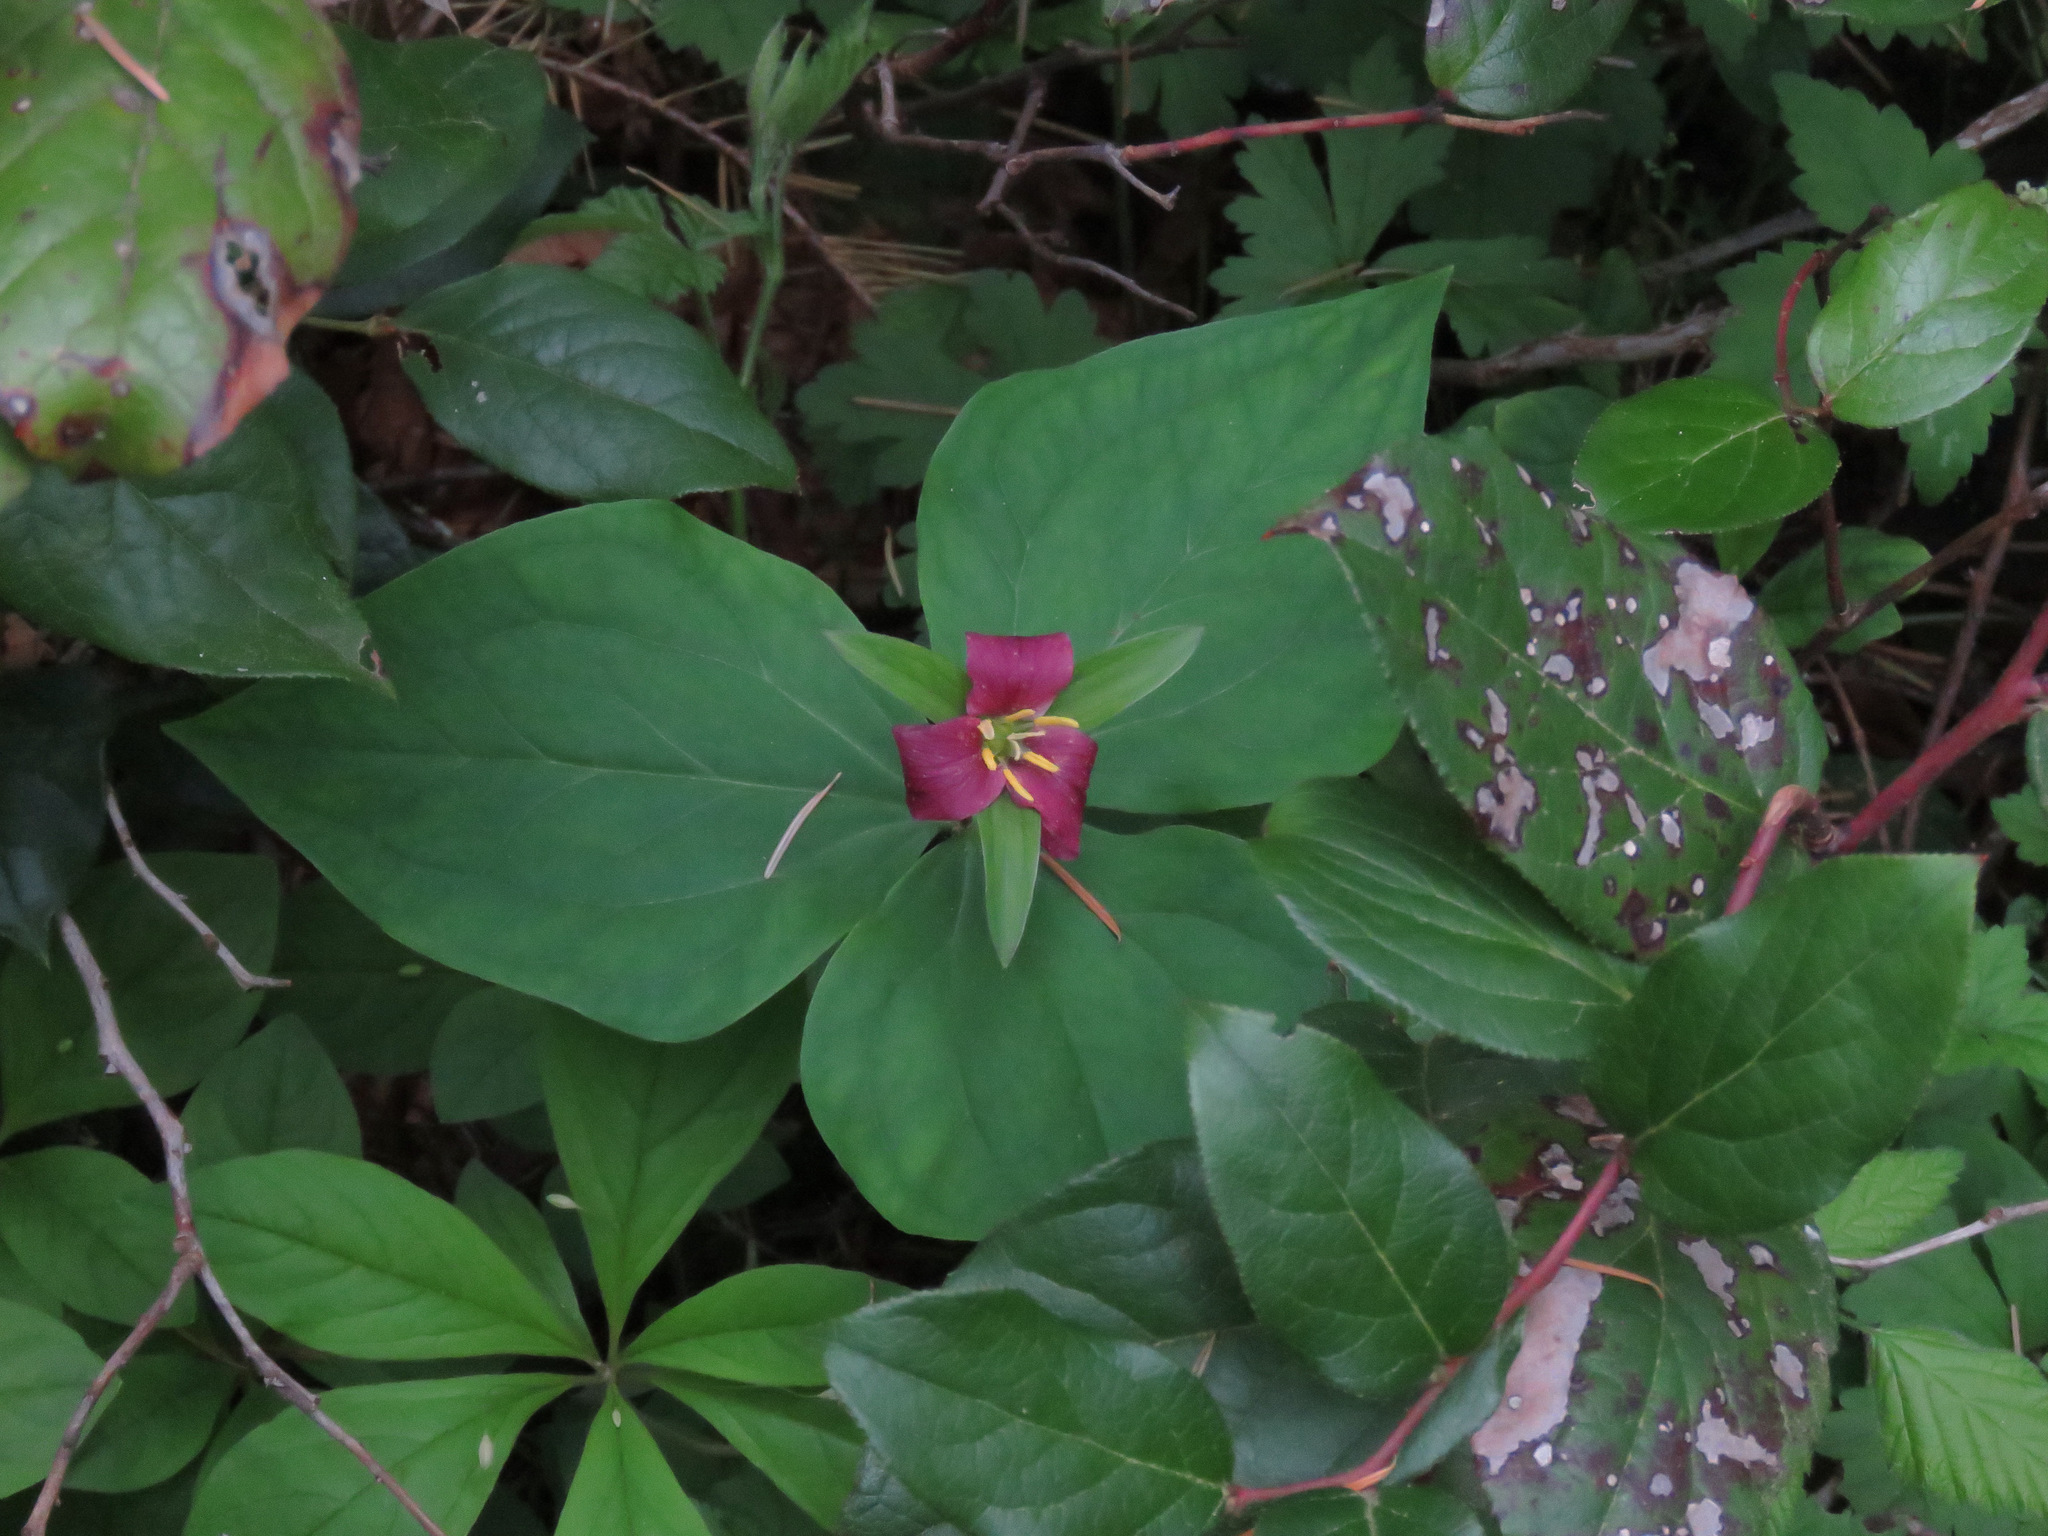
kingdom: Plantae
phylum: Tracheophyta
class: Liliopsida
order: Liliales
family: Melanthiaceae
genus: Trillium
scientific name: Trillium ovatum
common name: Pacific trillium
